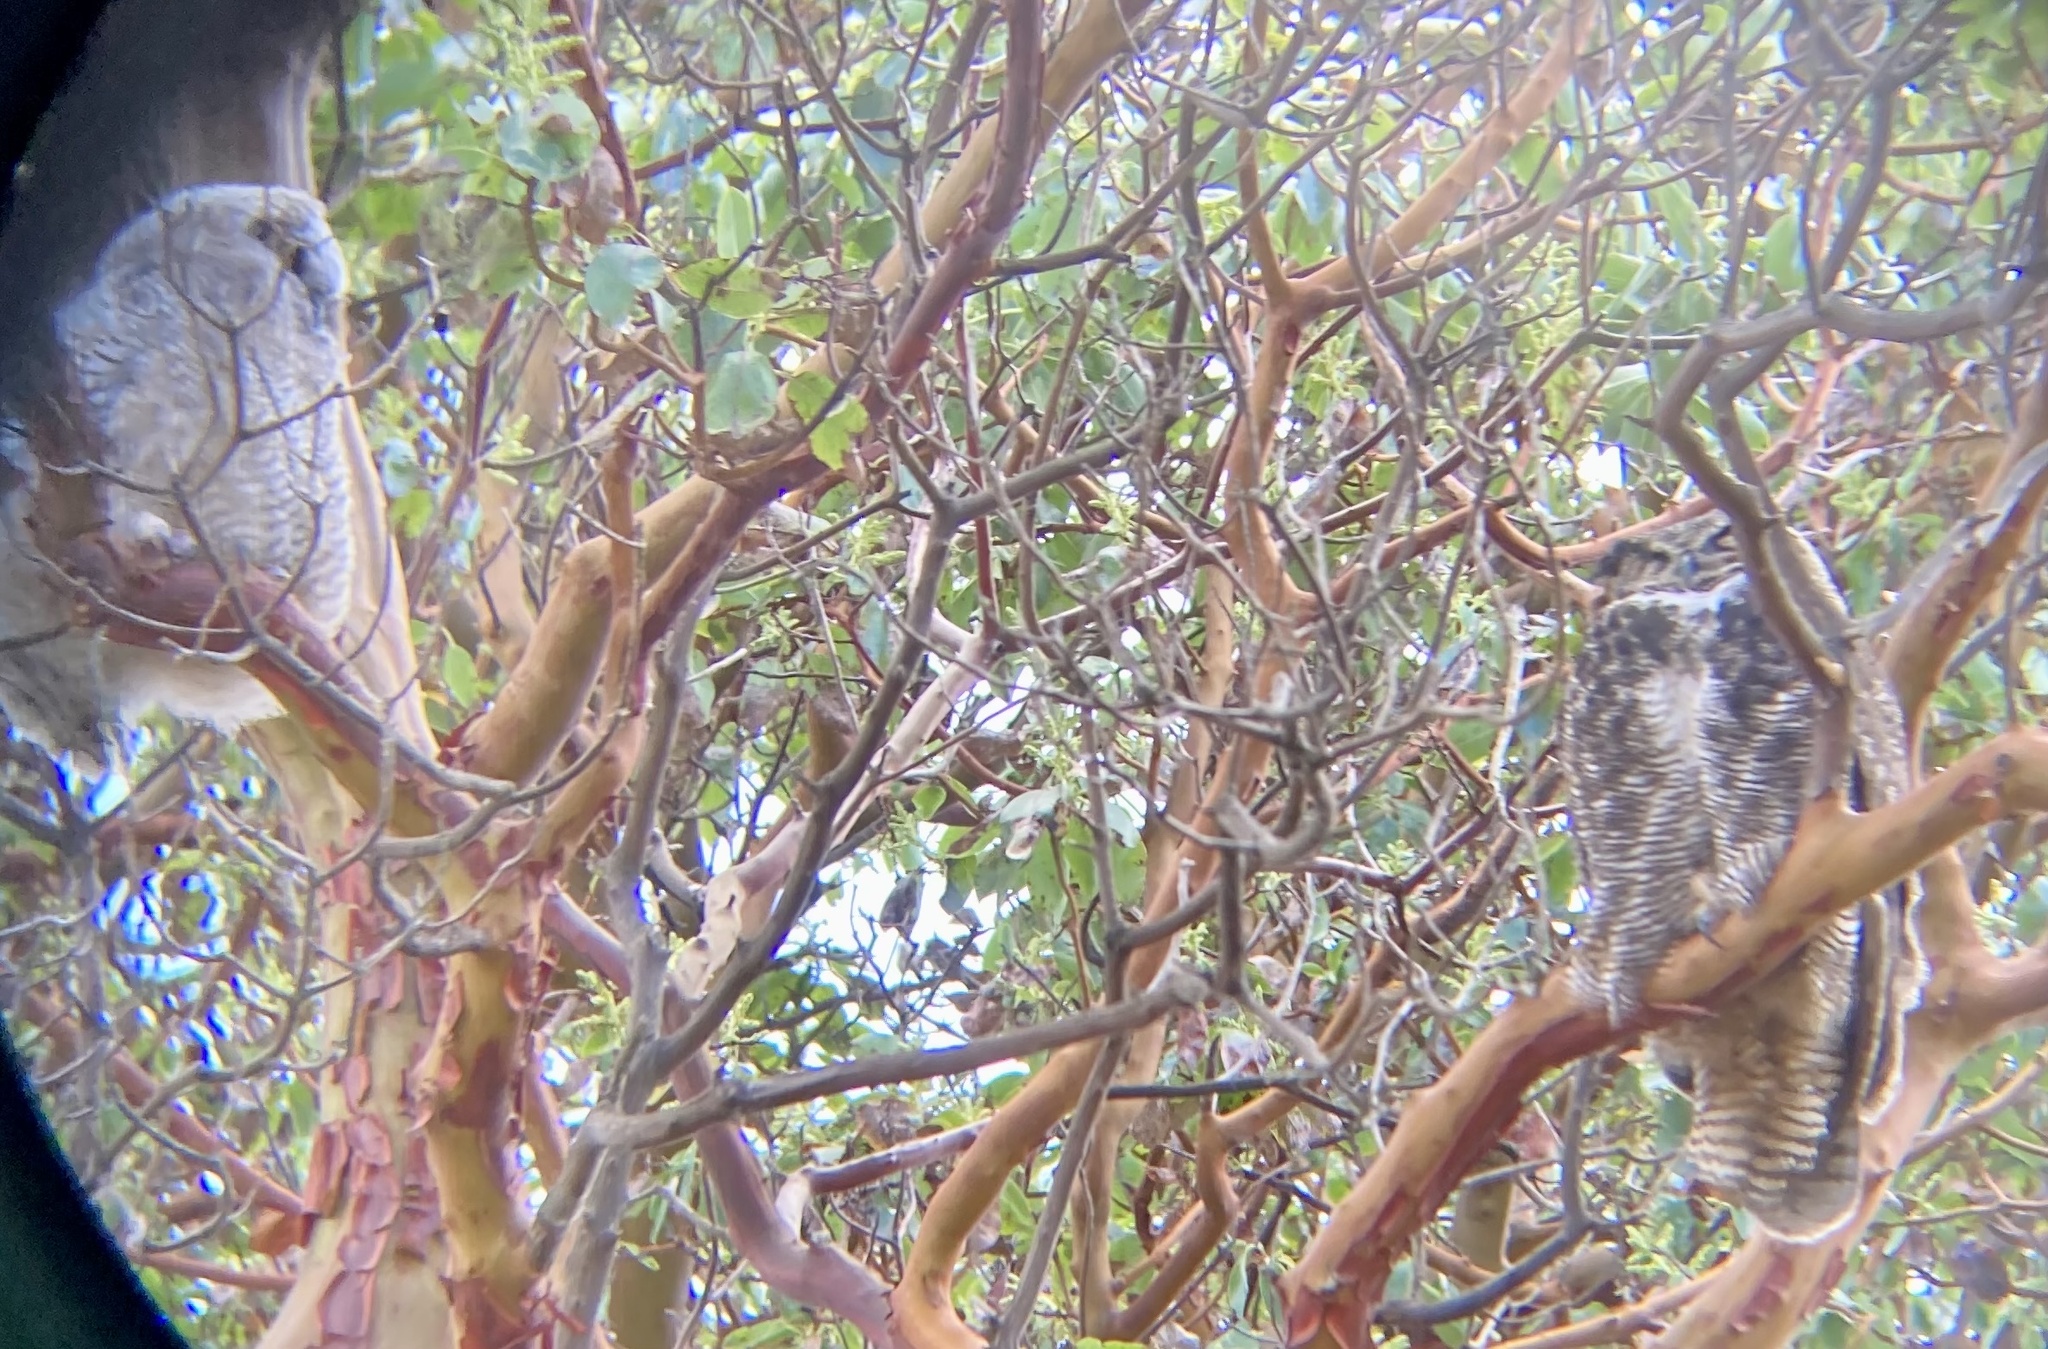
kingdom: Animalia
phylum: Chordata
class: Aves
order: Strigiformes
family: Strigidae
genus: Bubo
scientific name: Bubo virginianus
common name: Great horned owl
